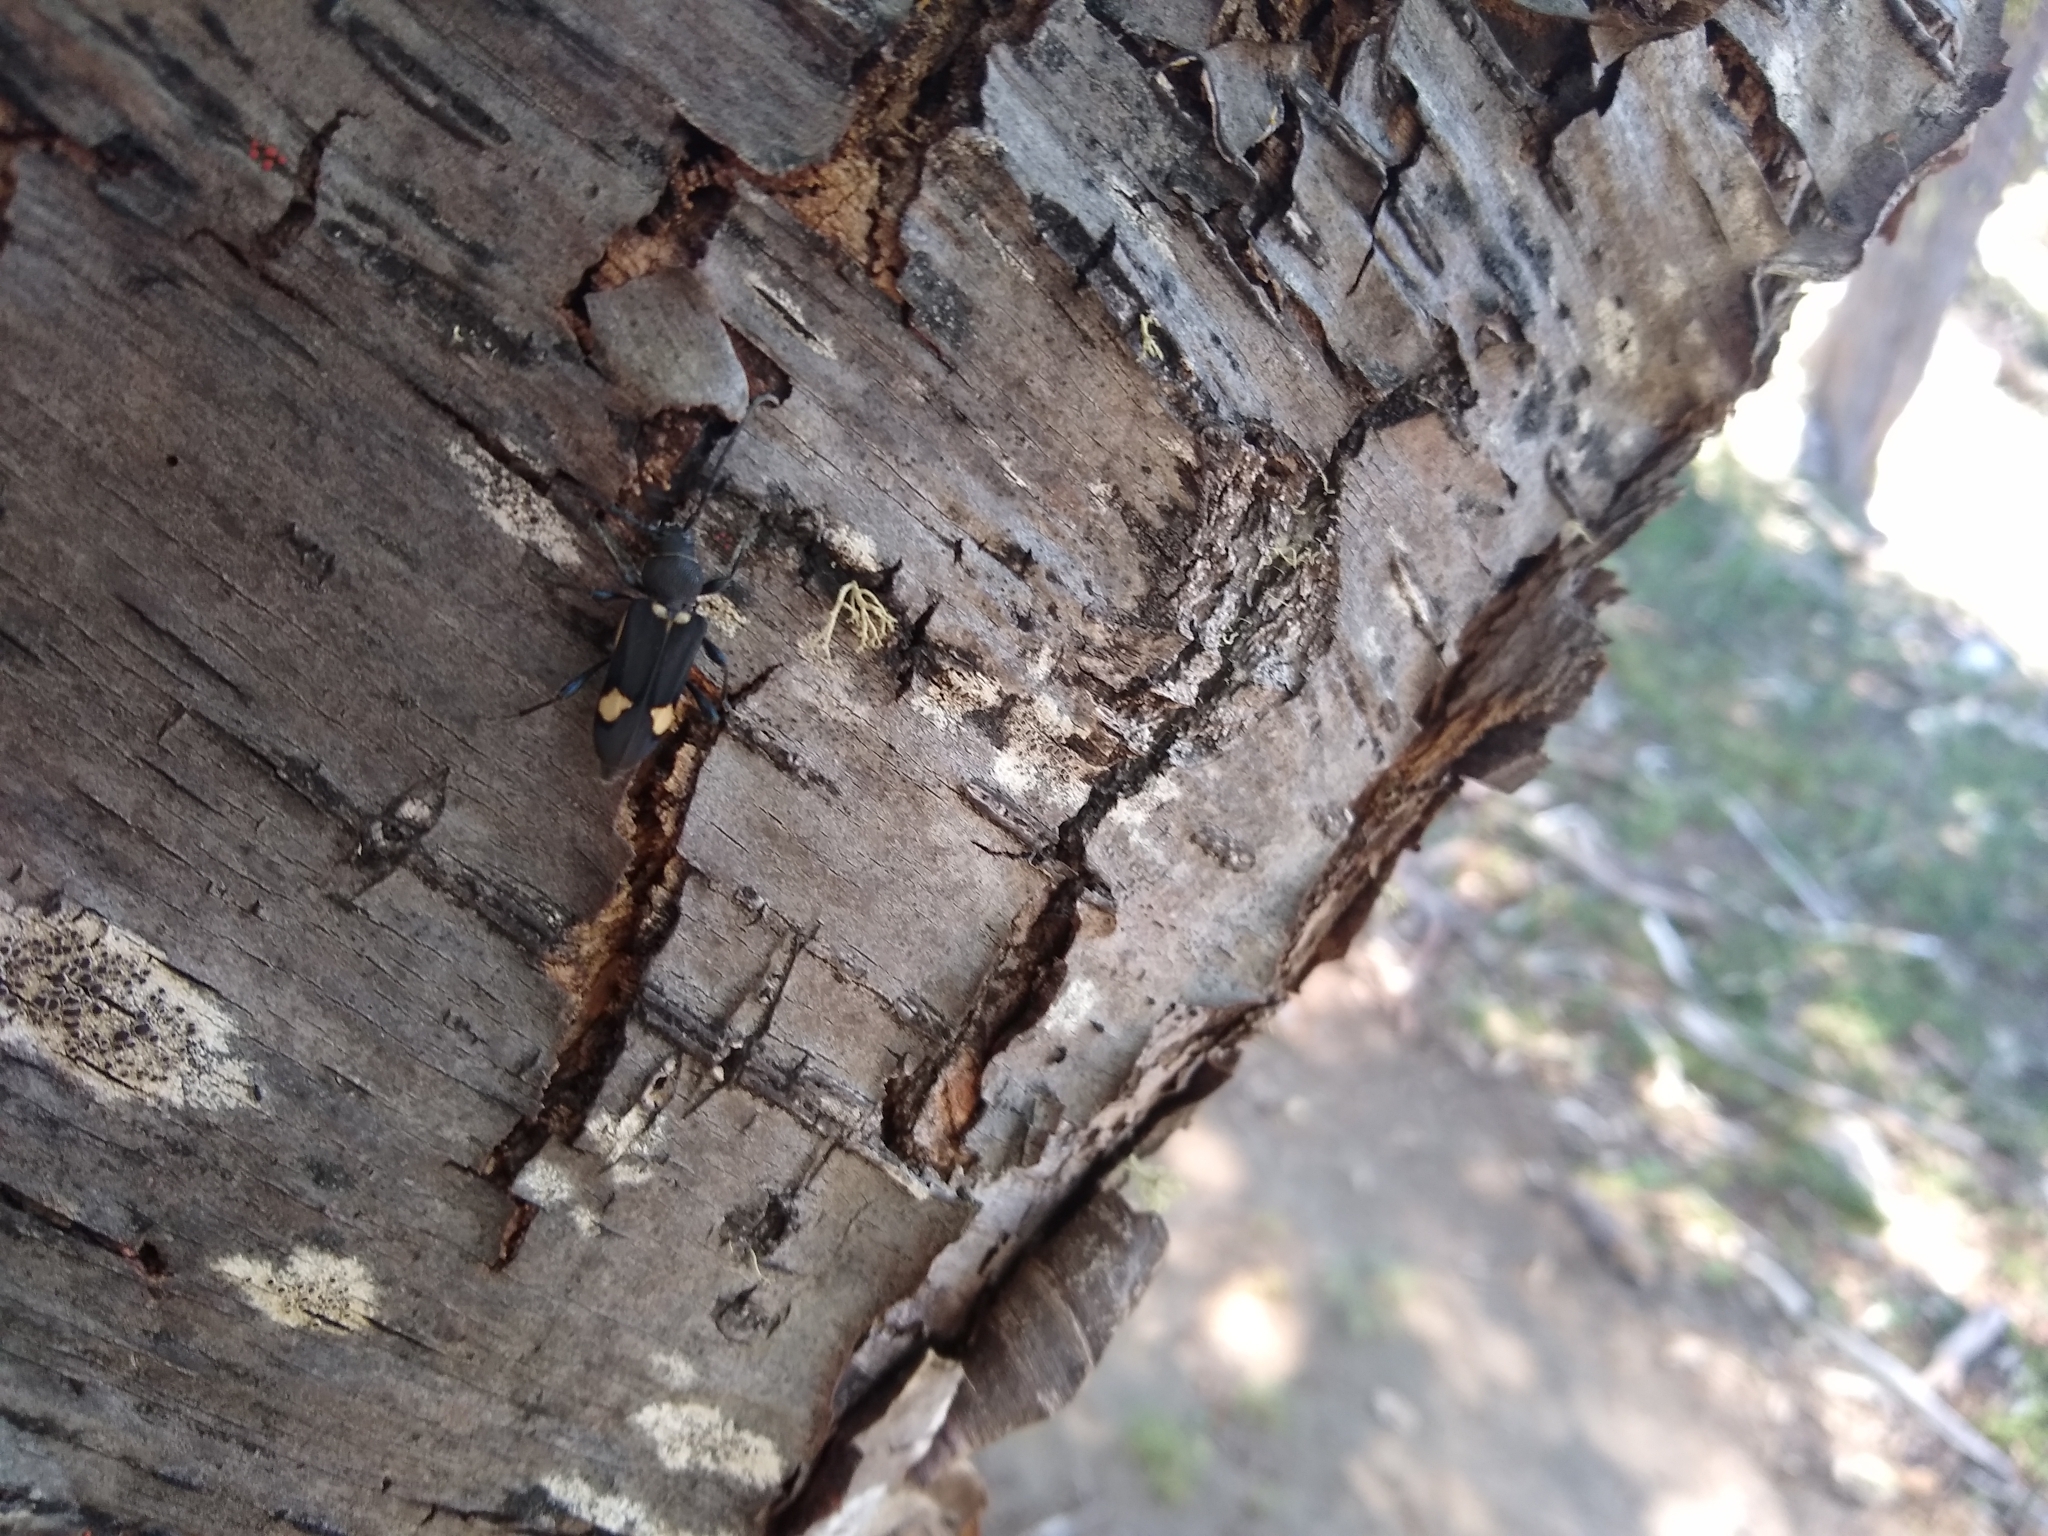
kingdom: Animalia
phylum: Arthropoda
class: Insecta
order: Coleoptera
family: Cerambycidae
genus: Calydon
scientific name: Calydon globithorax
